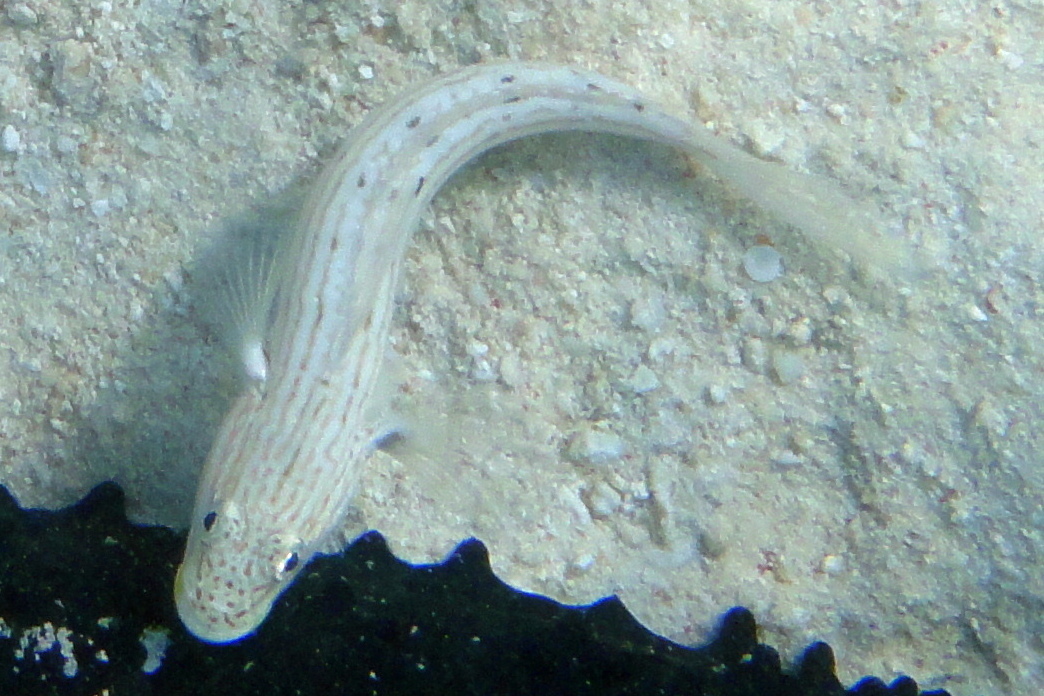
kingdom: Animalia
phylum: Chordata
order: Perciformes
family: Gobiidae
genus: Valenciennea
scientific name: Valenciennea longipinnis
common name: Longfinned goby
